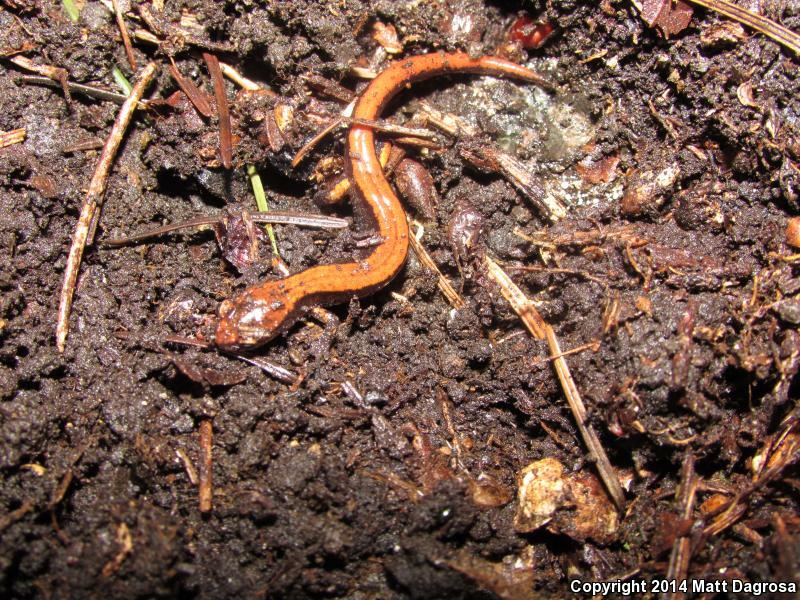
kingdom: Animalia
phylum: Chordata
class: Amphibia
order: Caudata
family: Plethodontidae
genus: Plethodon
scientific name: Plethodon vehiculum
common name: Western red-backed salamander
